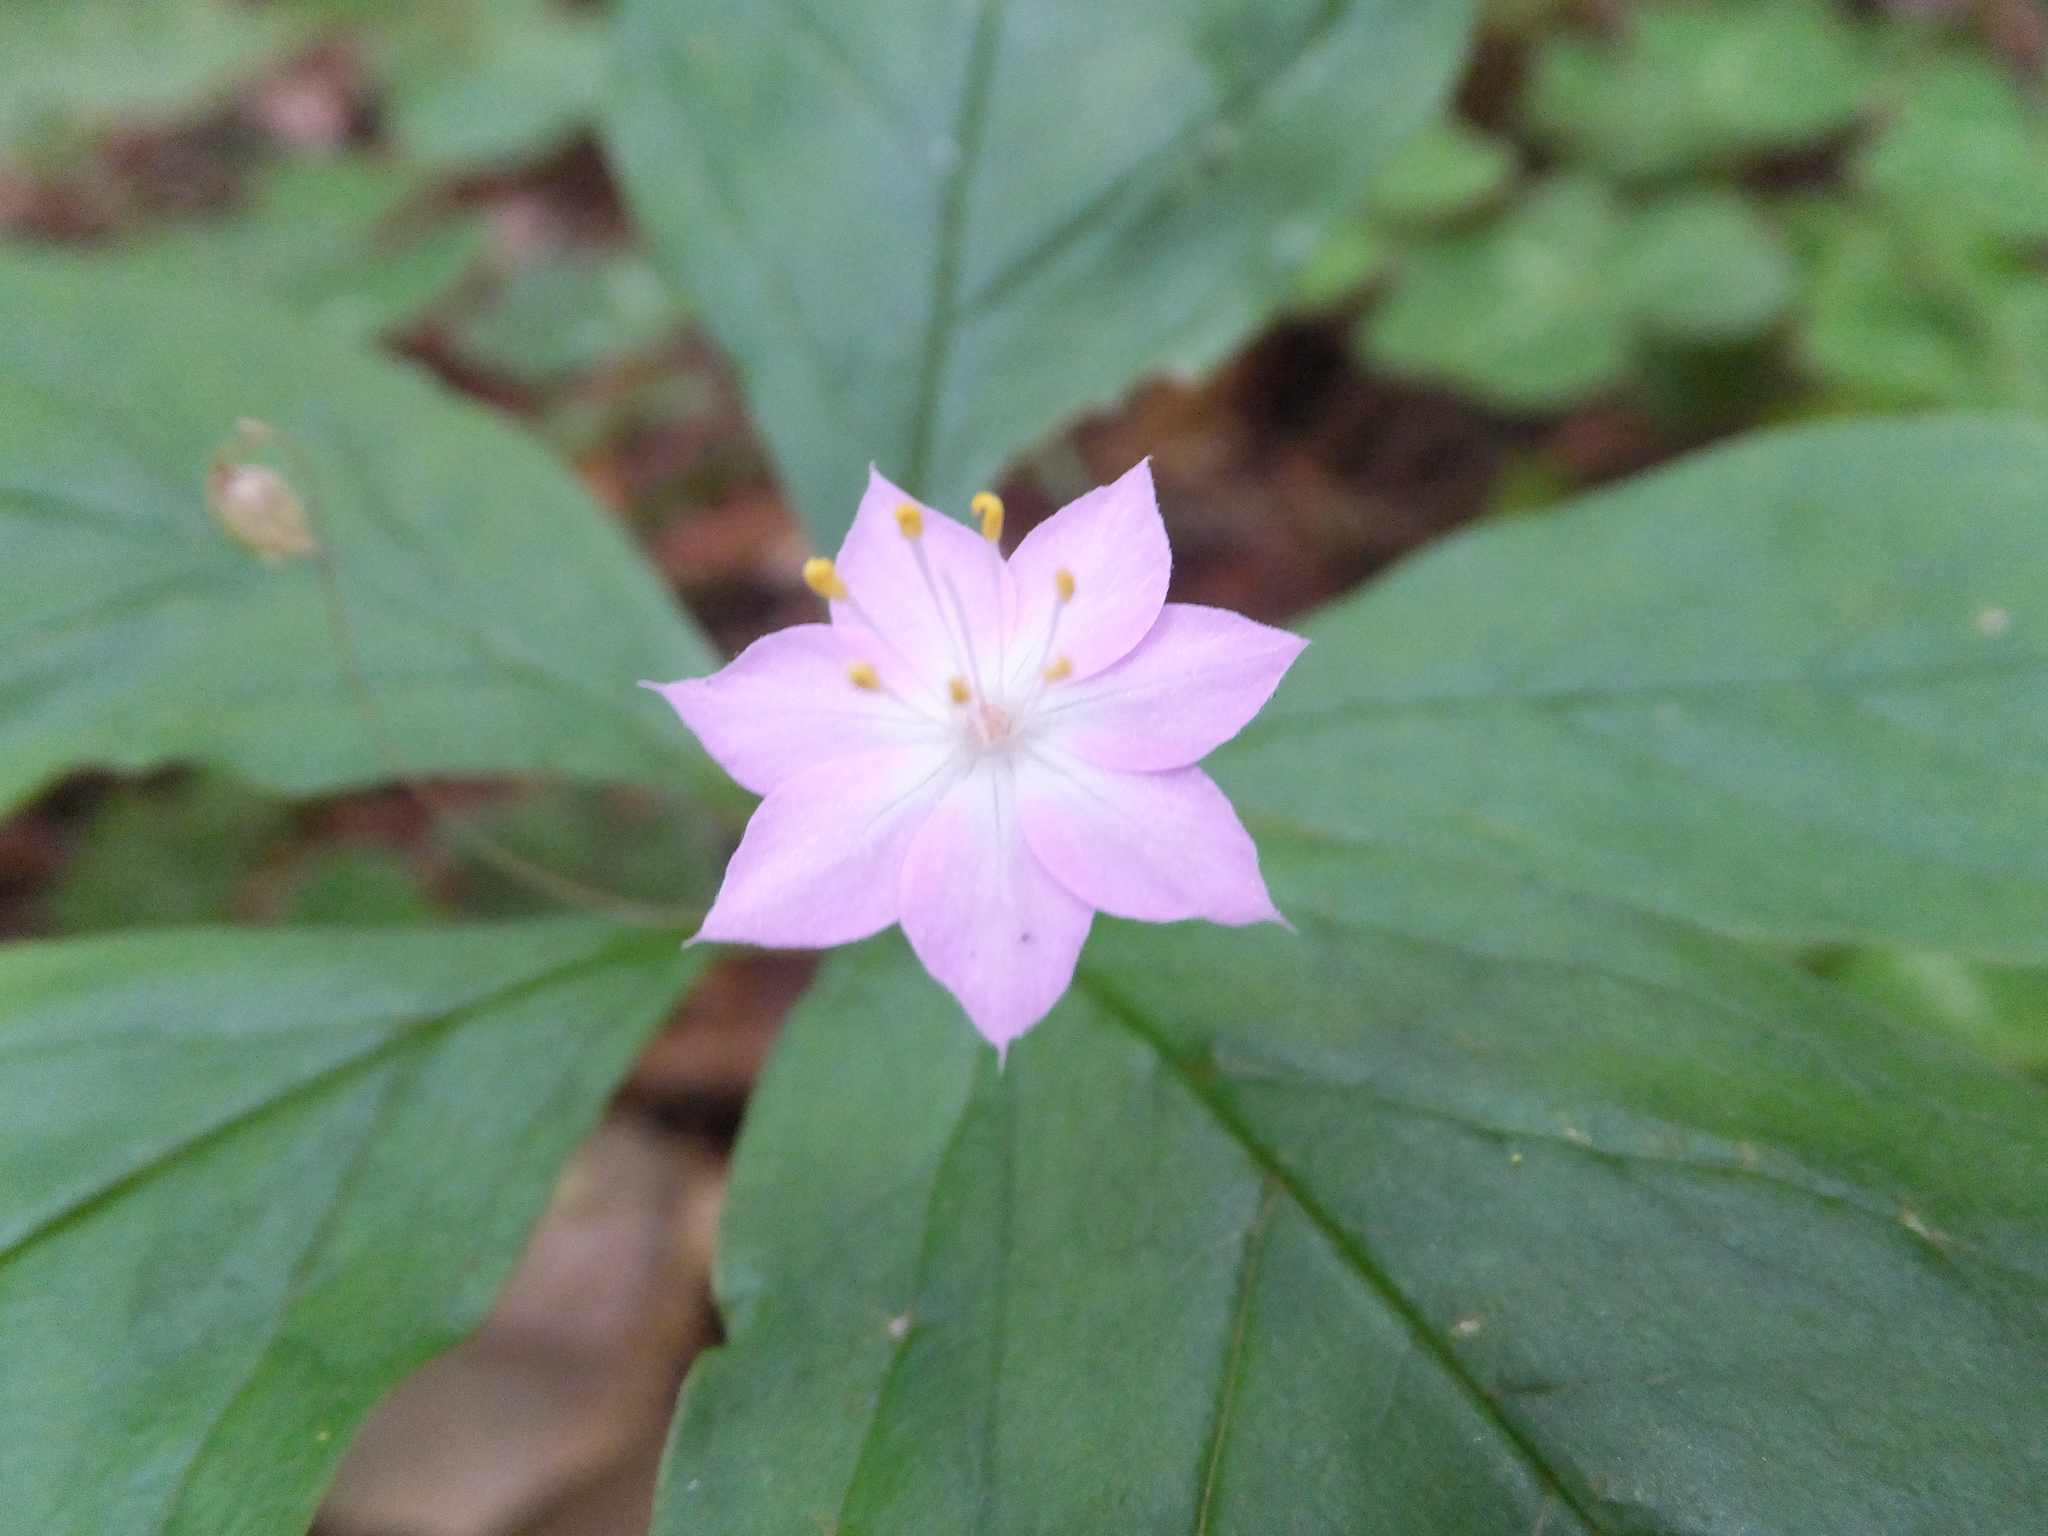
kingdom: Plantae
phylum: Tracheophyta
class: Magnoliopsida
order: Ericales
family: Primulaceae
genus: Lysimachia
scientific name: Lysimachia latifolia
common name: Pacific starflower
